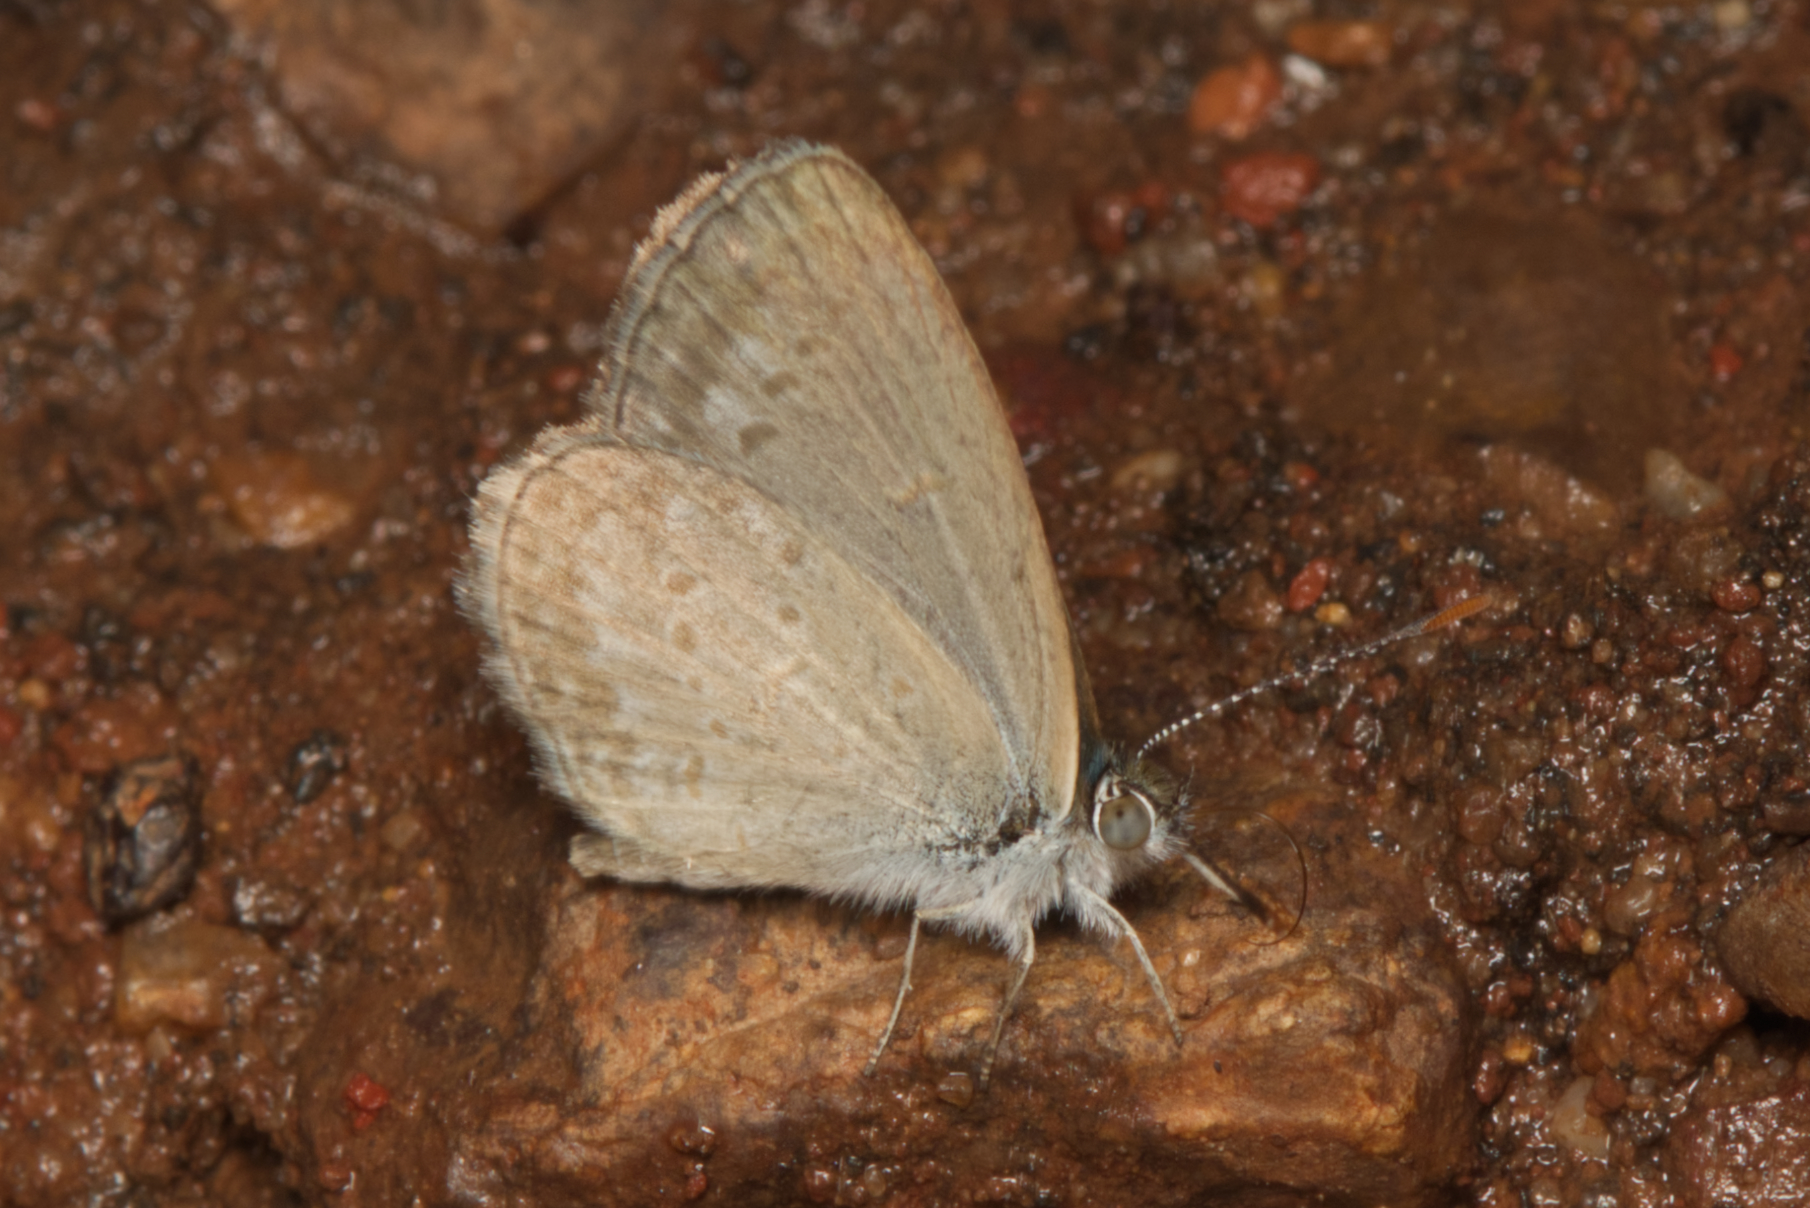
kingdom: Animalia
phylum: Arthropoda
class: Insecta
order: Lepidoptera
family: Lycaenidae
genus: Zizina
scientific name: Zizina labradus
